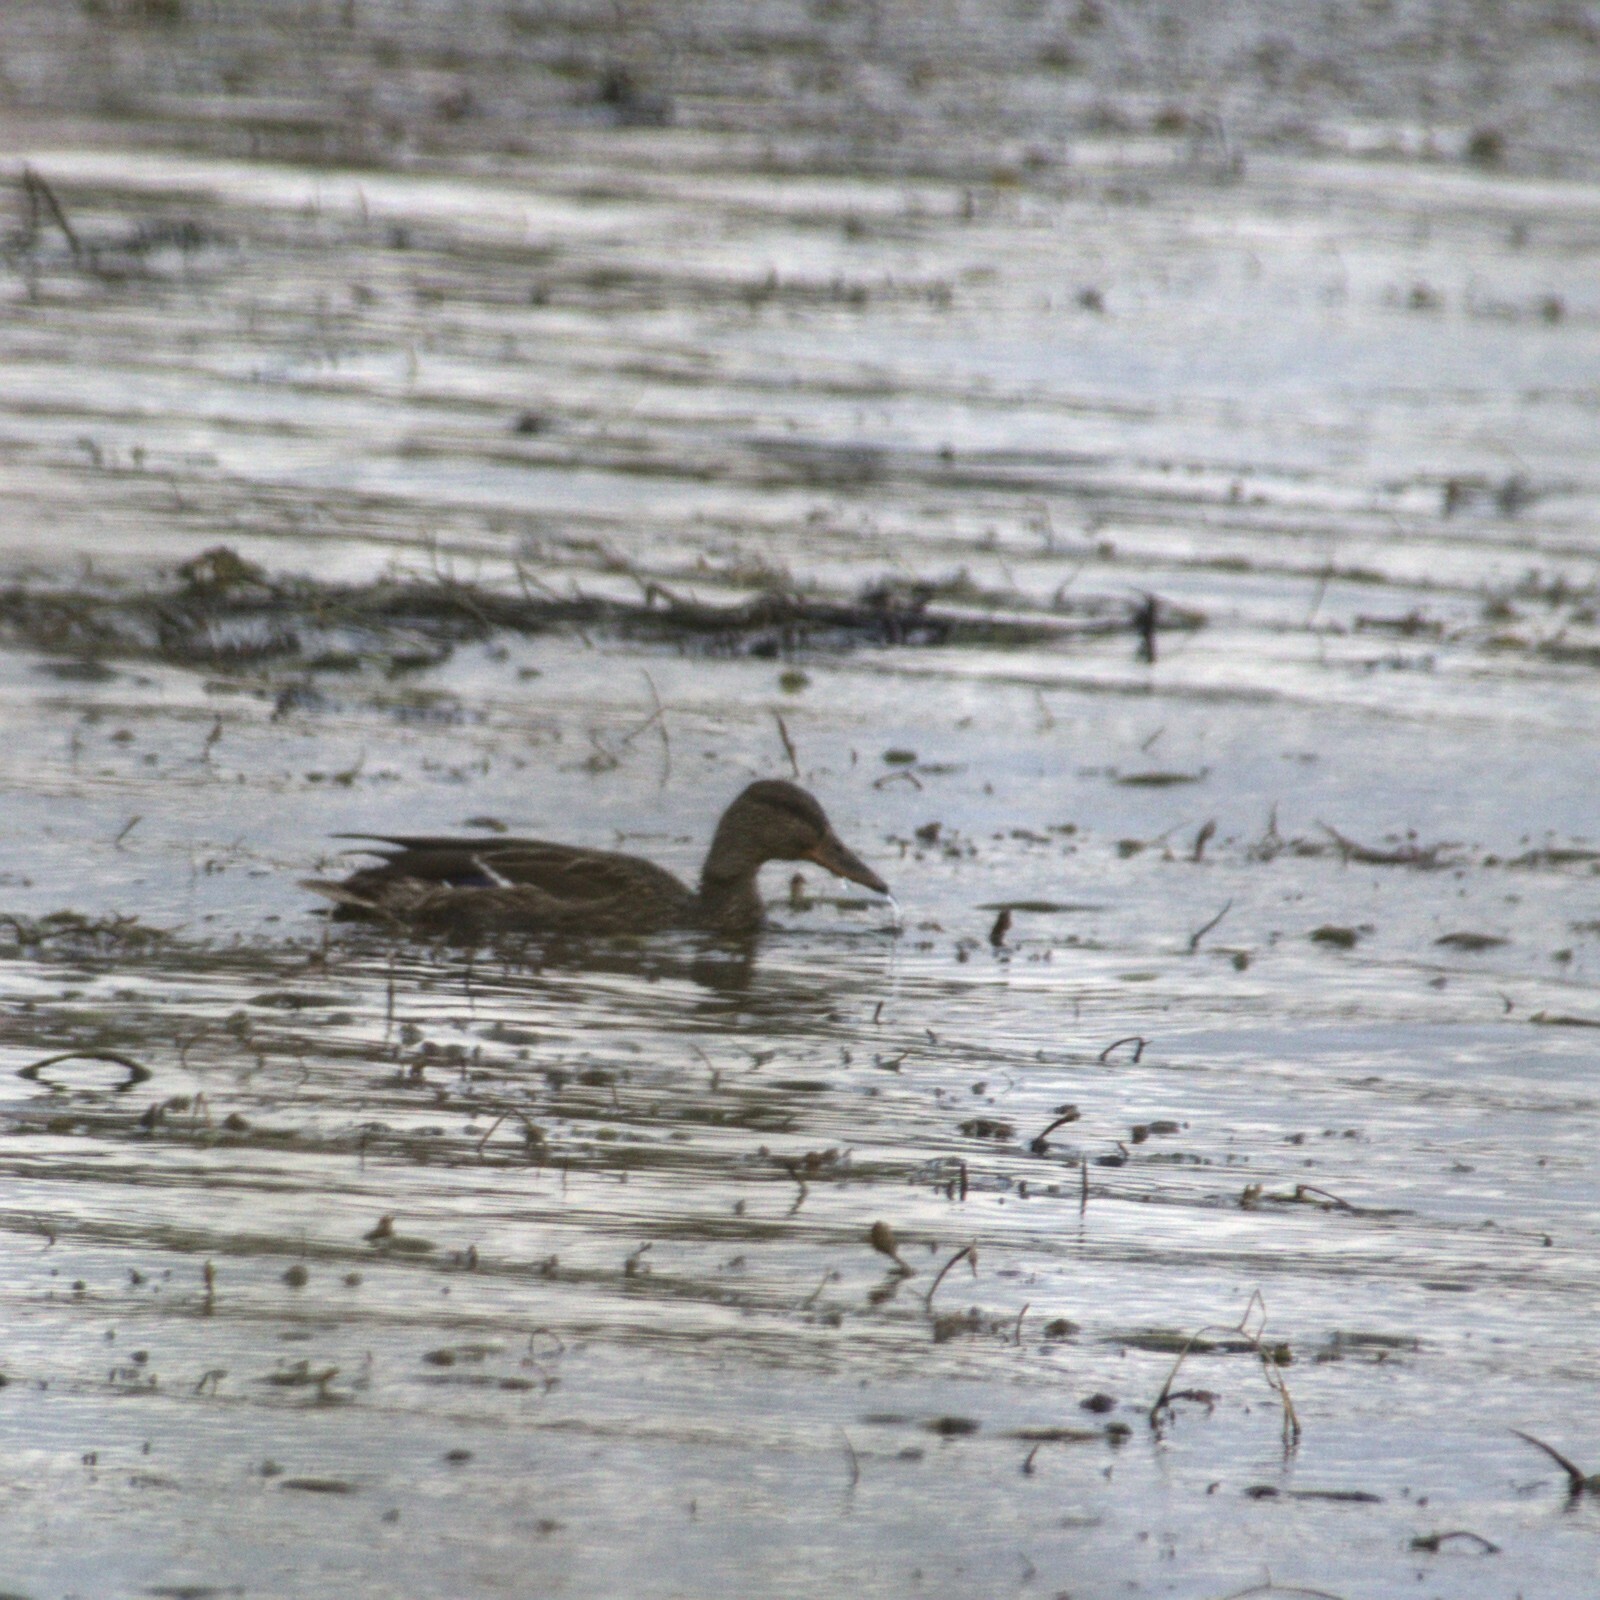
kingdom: Animalia
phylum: Chordata
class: Aves
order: Anseriformes
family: Anatidae
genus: Anas
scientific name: Anas platyrhynchos
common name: Mallard
